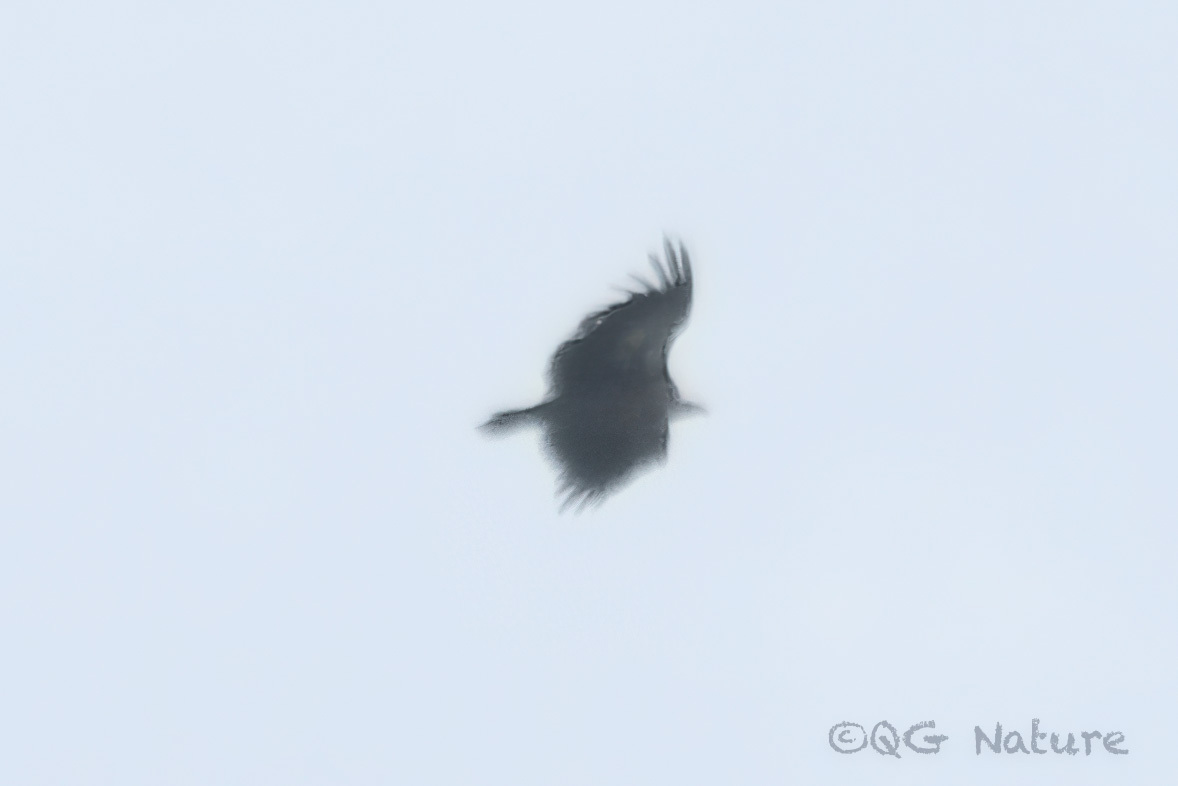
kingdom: Animalia
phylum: Chordata
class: Aves
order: Accipitriformes
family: Accipitridae
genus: Gyps
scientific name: Gyps himalayensis
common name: Himalayan griffon
